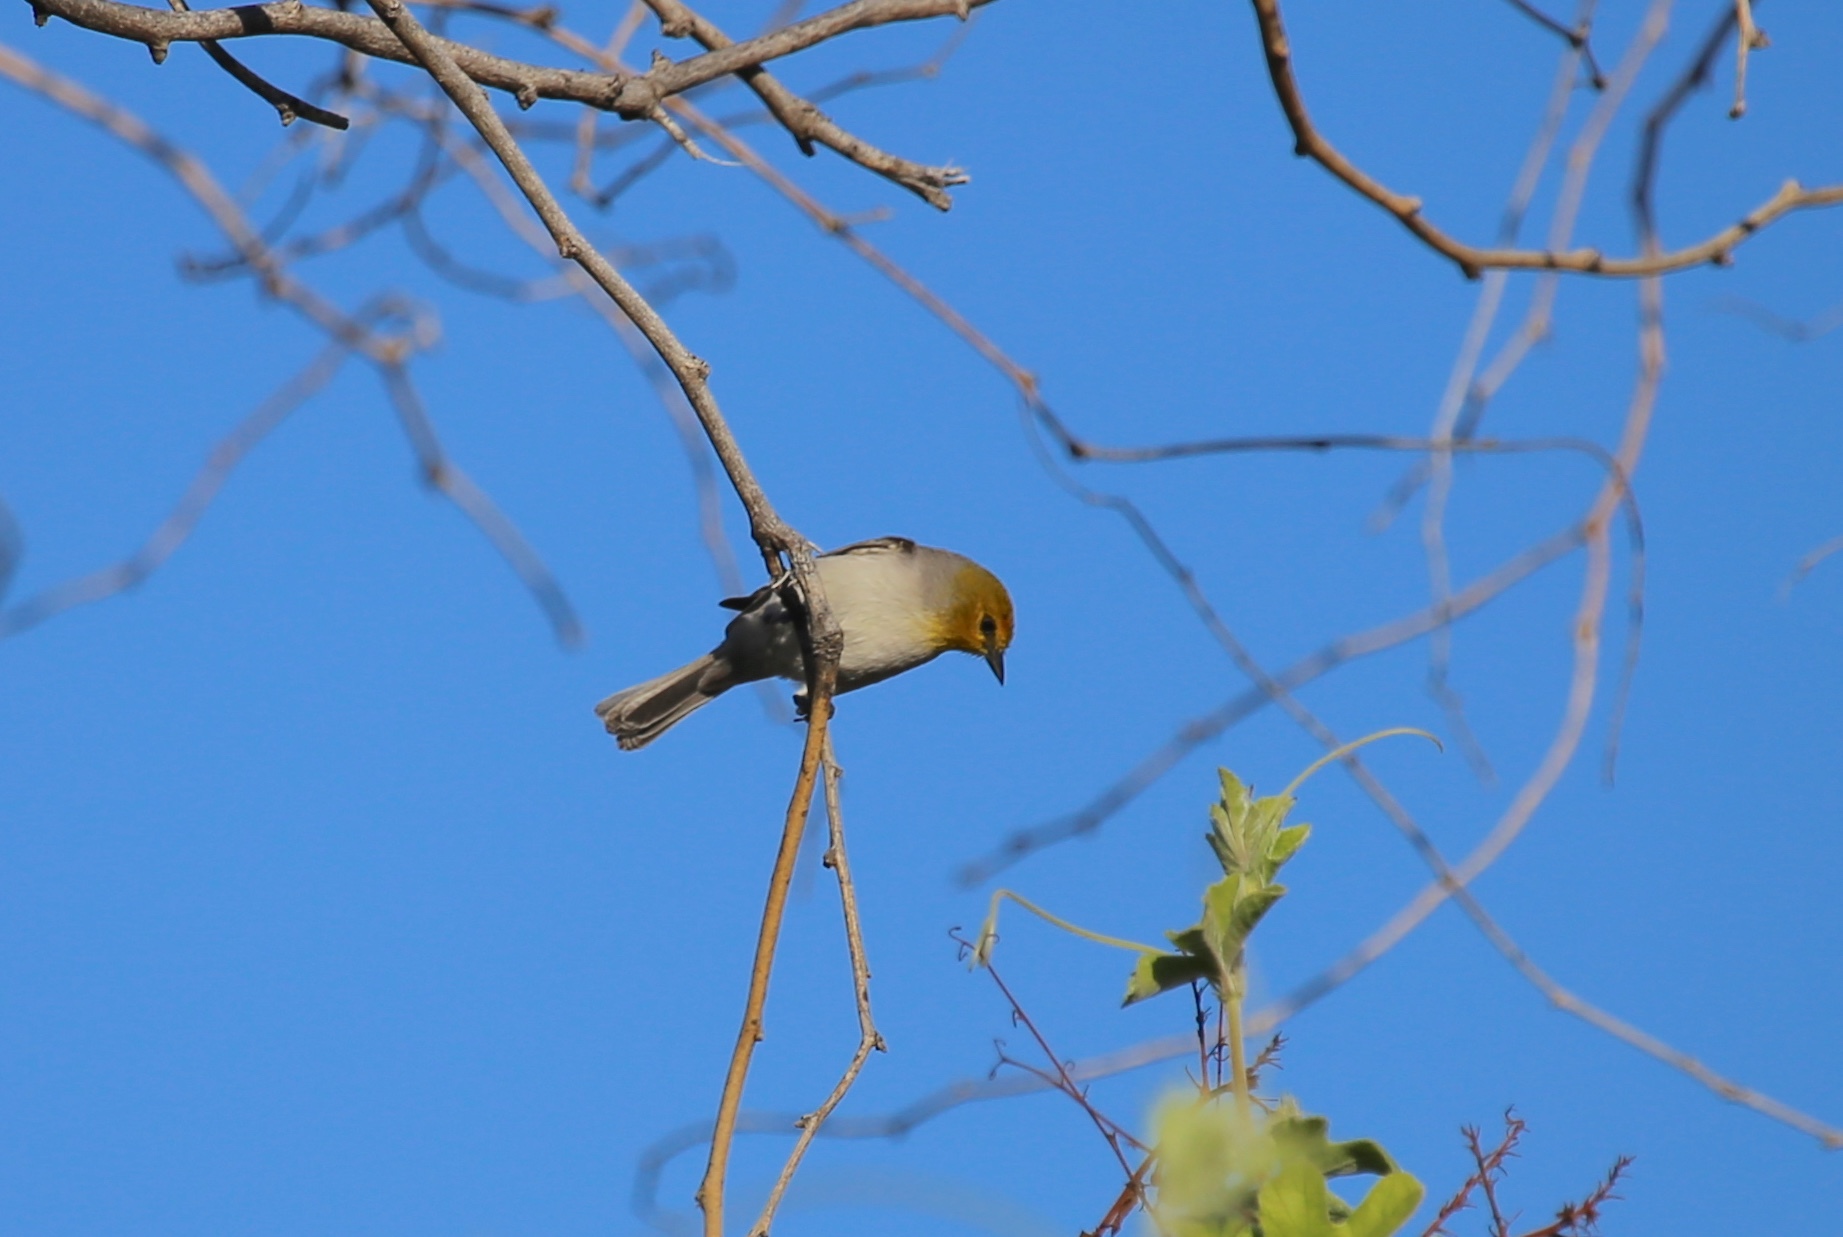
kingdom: Animalia
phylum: Chordata
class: Aves
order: Passeriformes
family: Remizidae
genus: Auriparus
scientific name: Auriparus flaviceps
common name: Verdin
